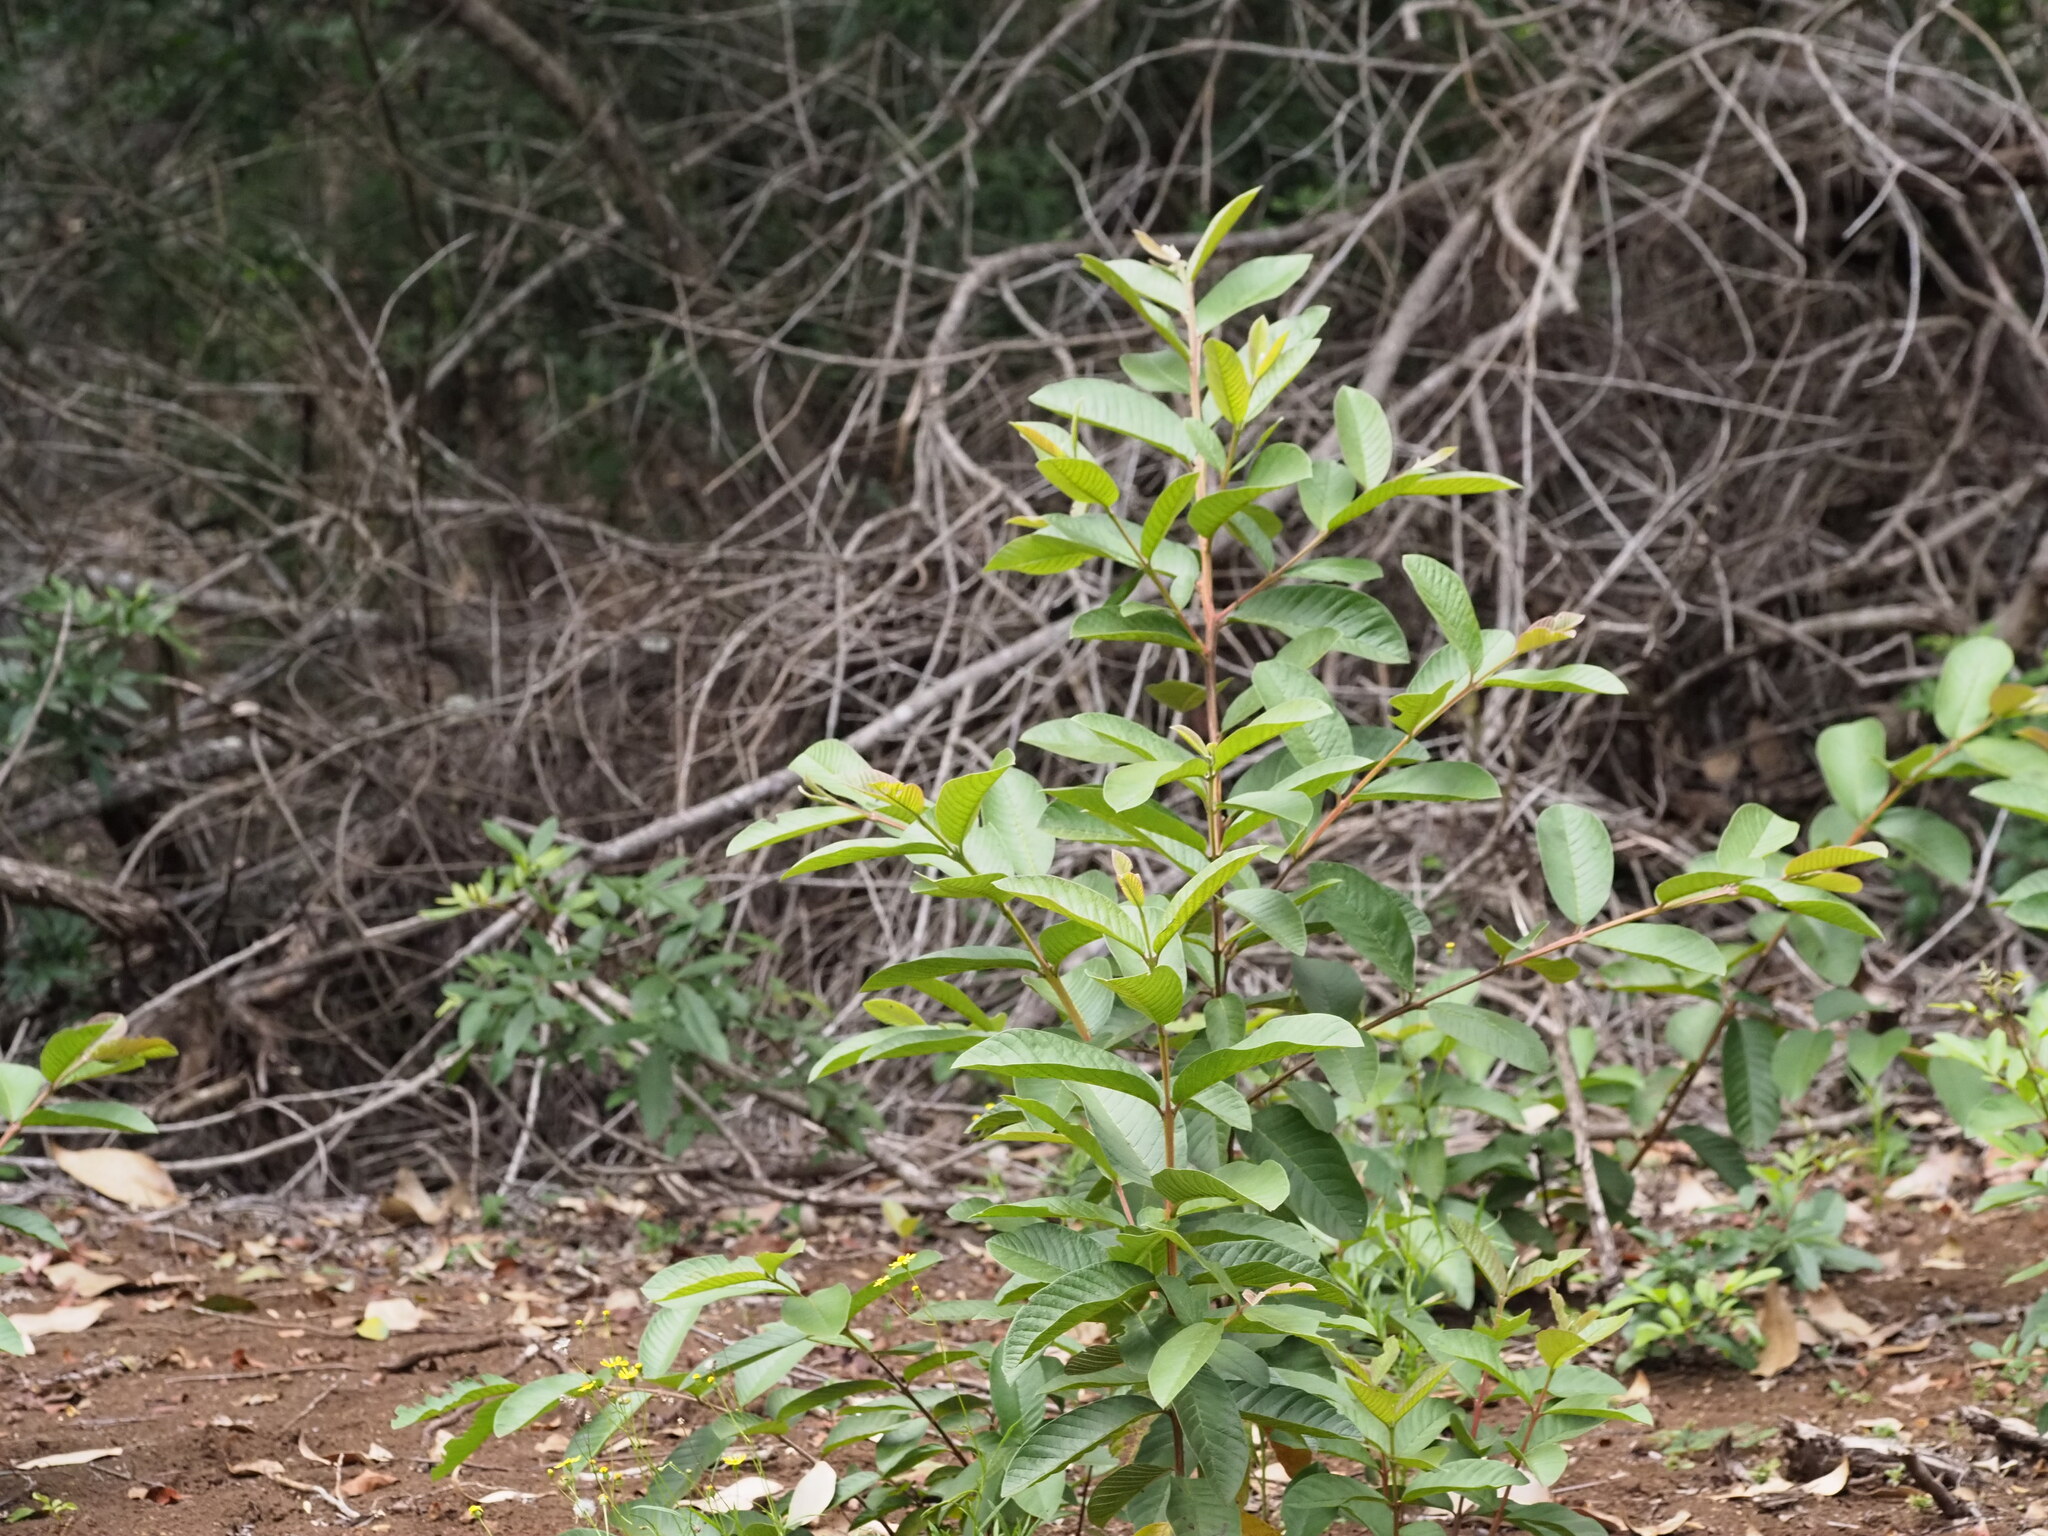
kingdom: Plantae
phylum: Tracheophyta
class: Magnoliopsida
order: Myrtales
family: Myrtaceae
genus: Psidium
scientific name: Psidium guajava
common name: Guava
